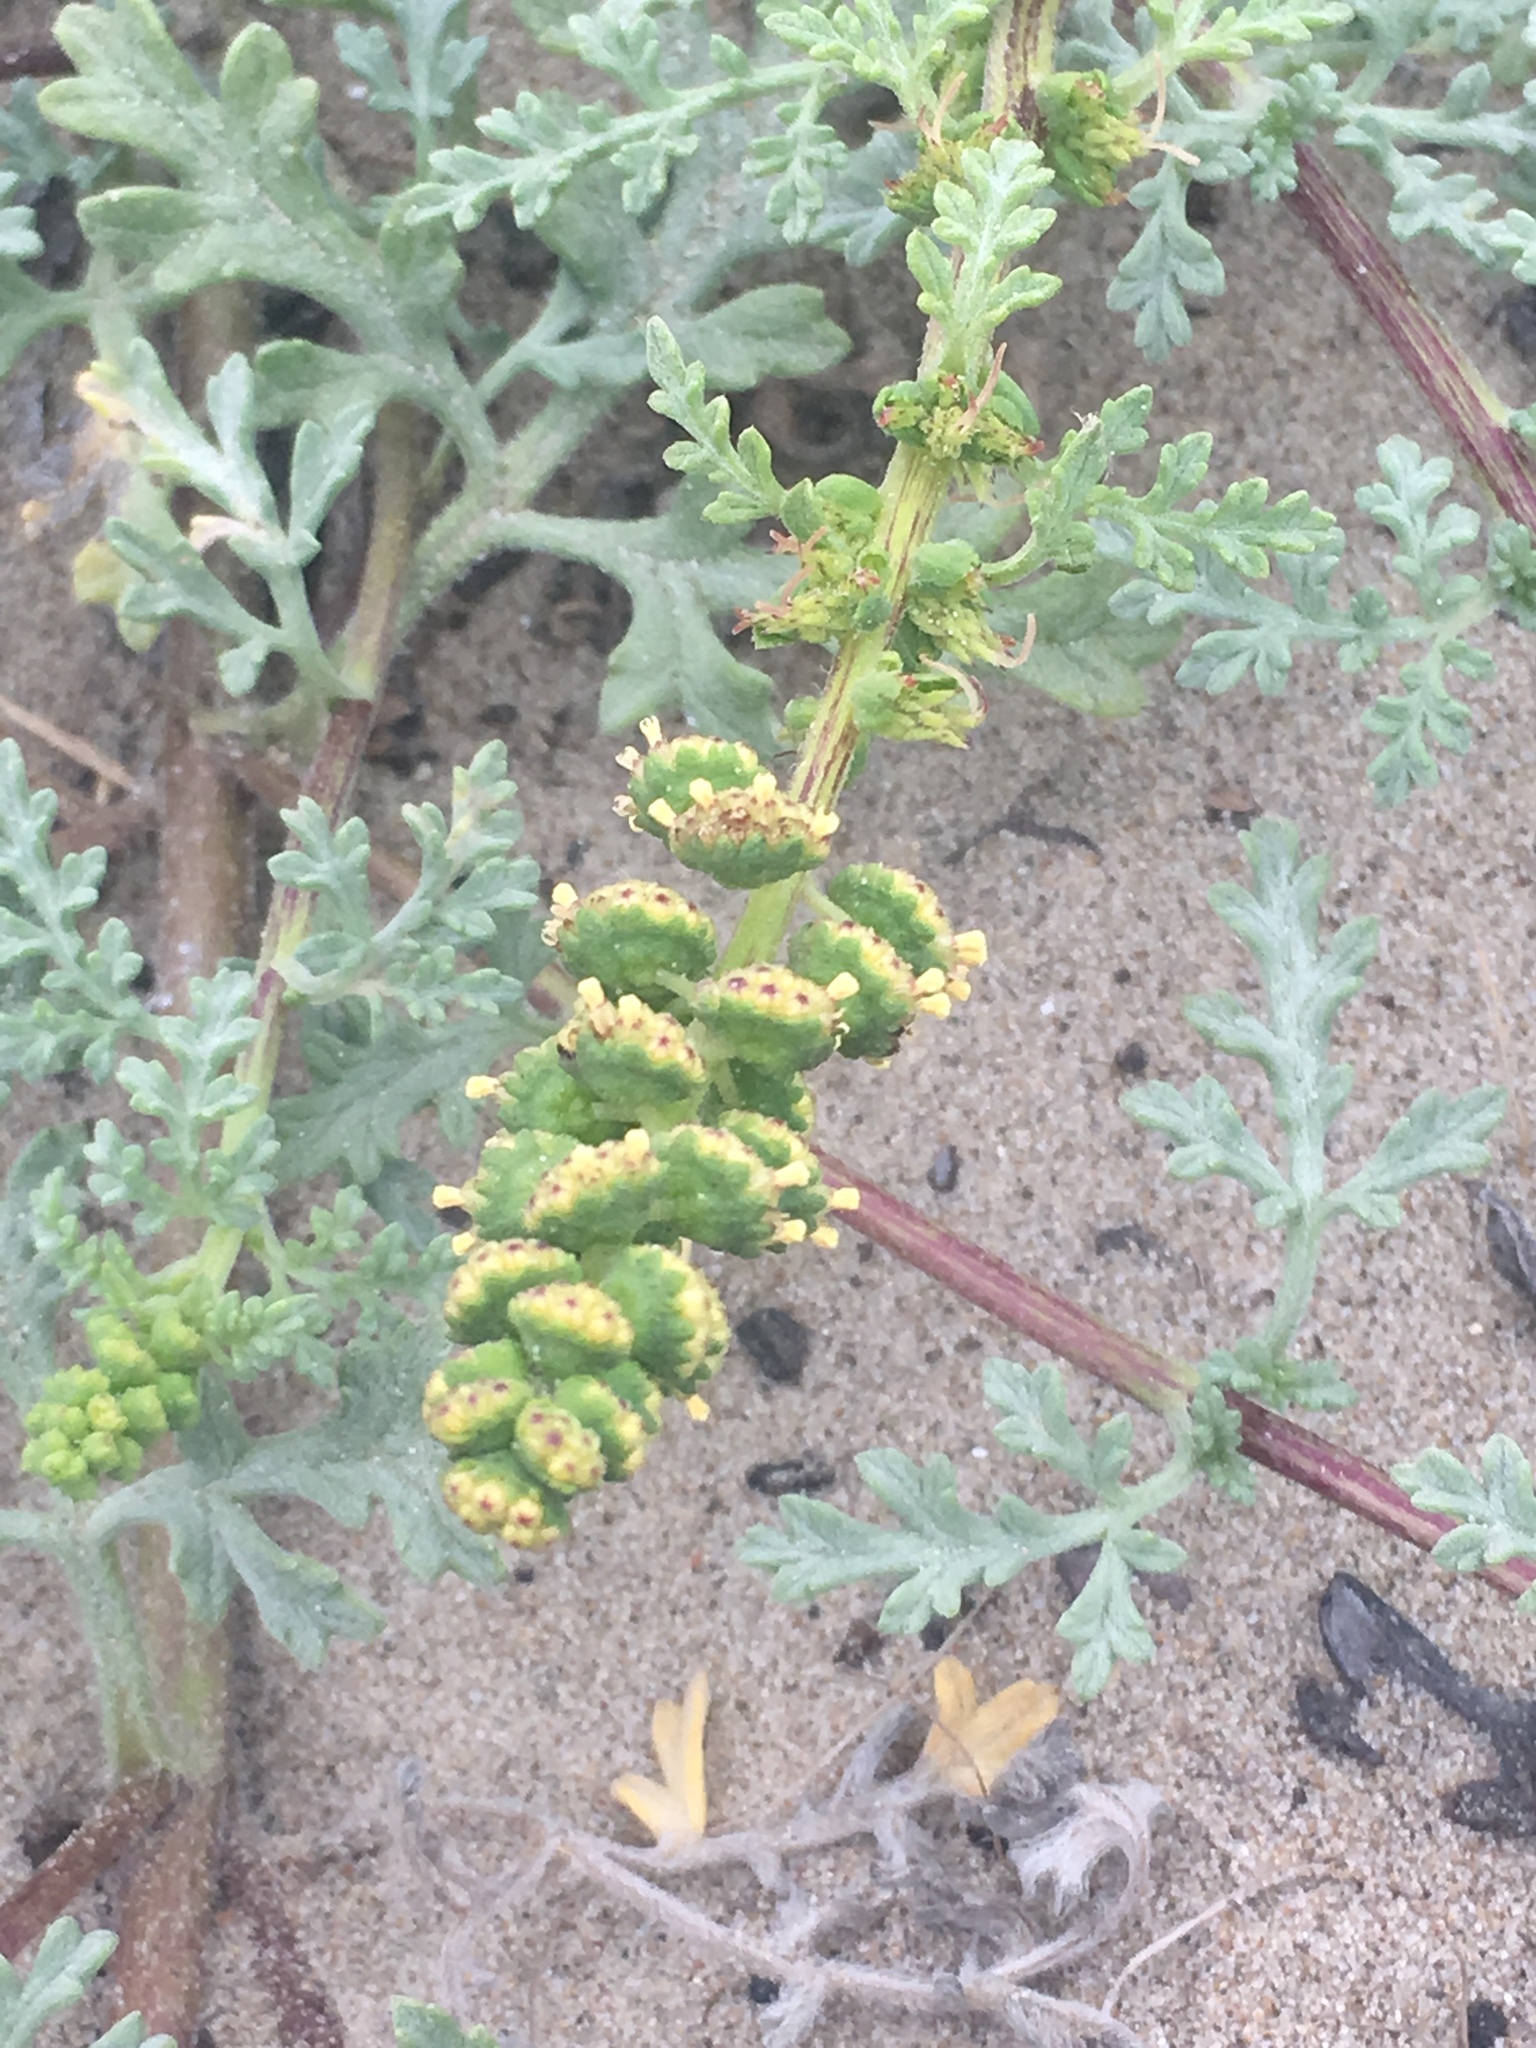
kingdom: Plantae
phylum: Tracheophyta
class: Magnoliopsida
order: Asterales
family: Asteraceae
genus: Ambrosia
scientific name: Ambrosia chamissonis
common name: Beachbur
